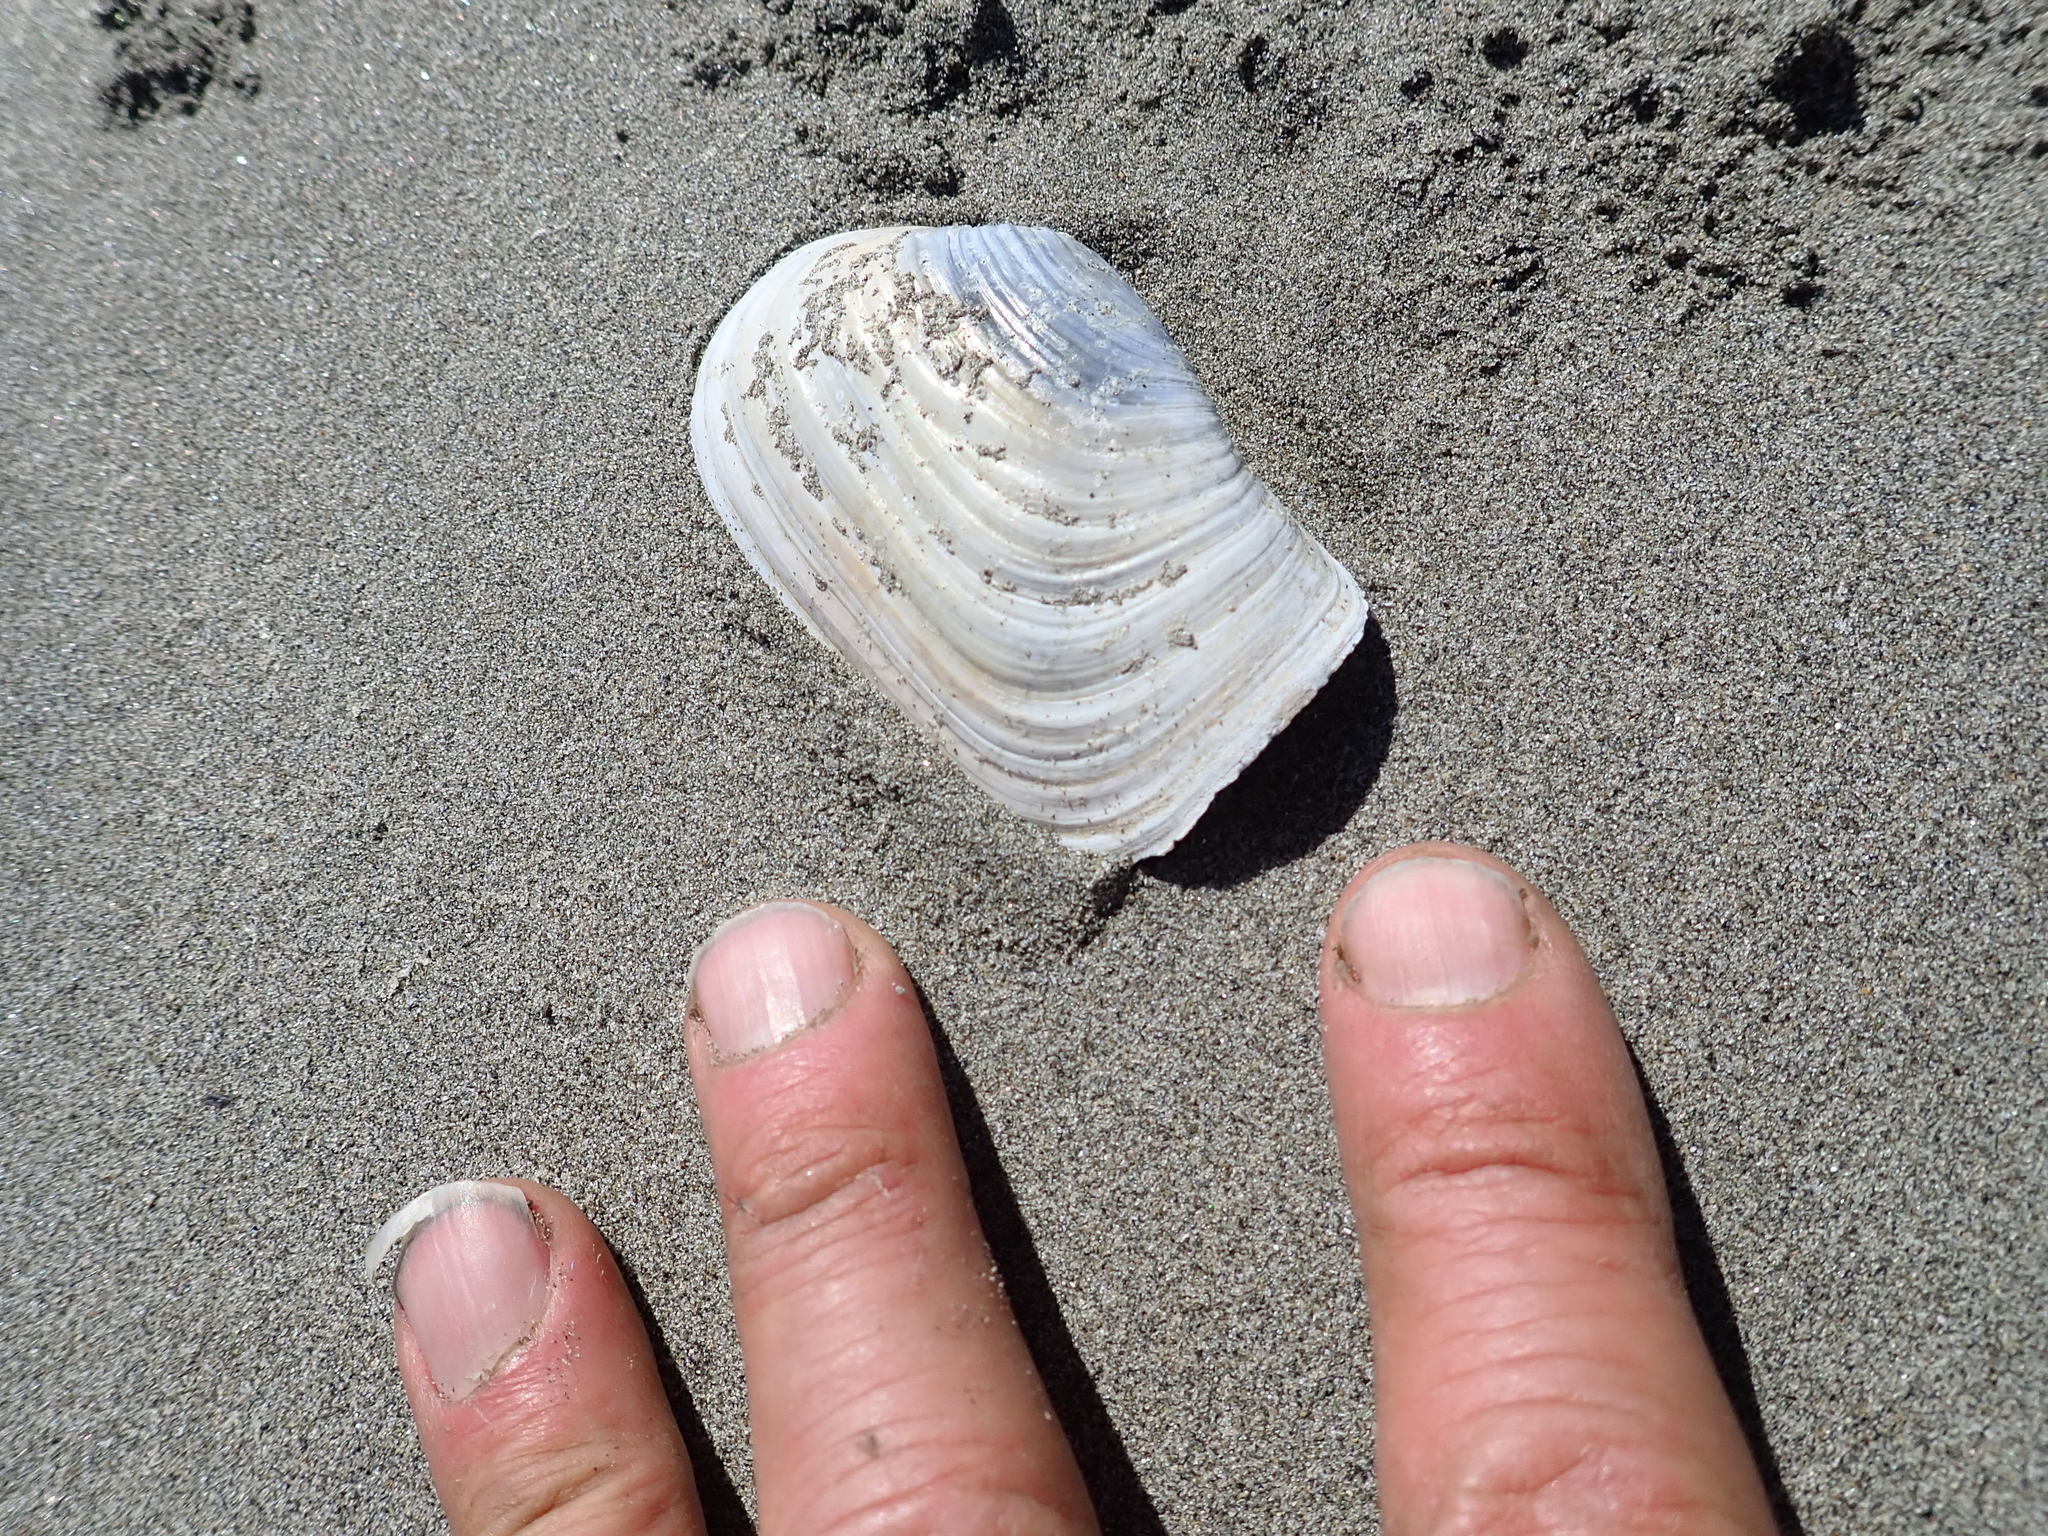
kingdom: Animalia
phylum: Mollusca
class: Bivalvia
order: Adapedonta
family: Hiatellidae
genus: Panopea
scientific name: Panopea zelandica
